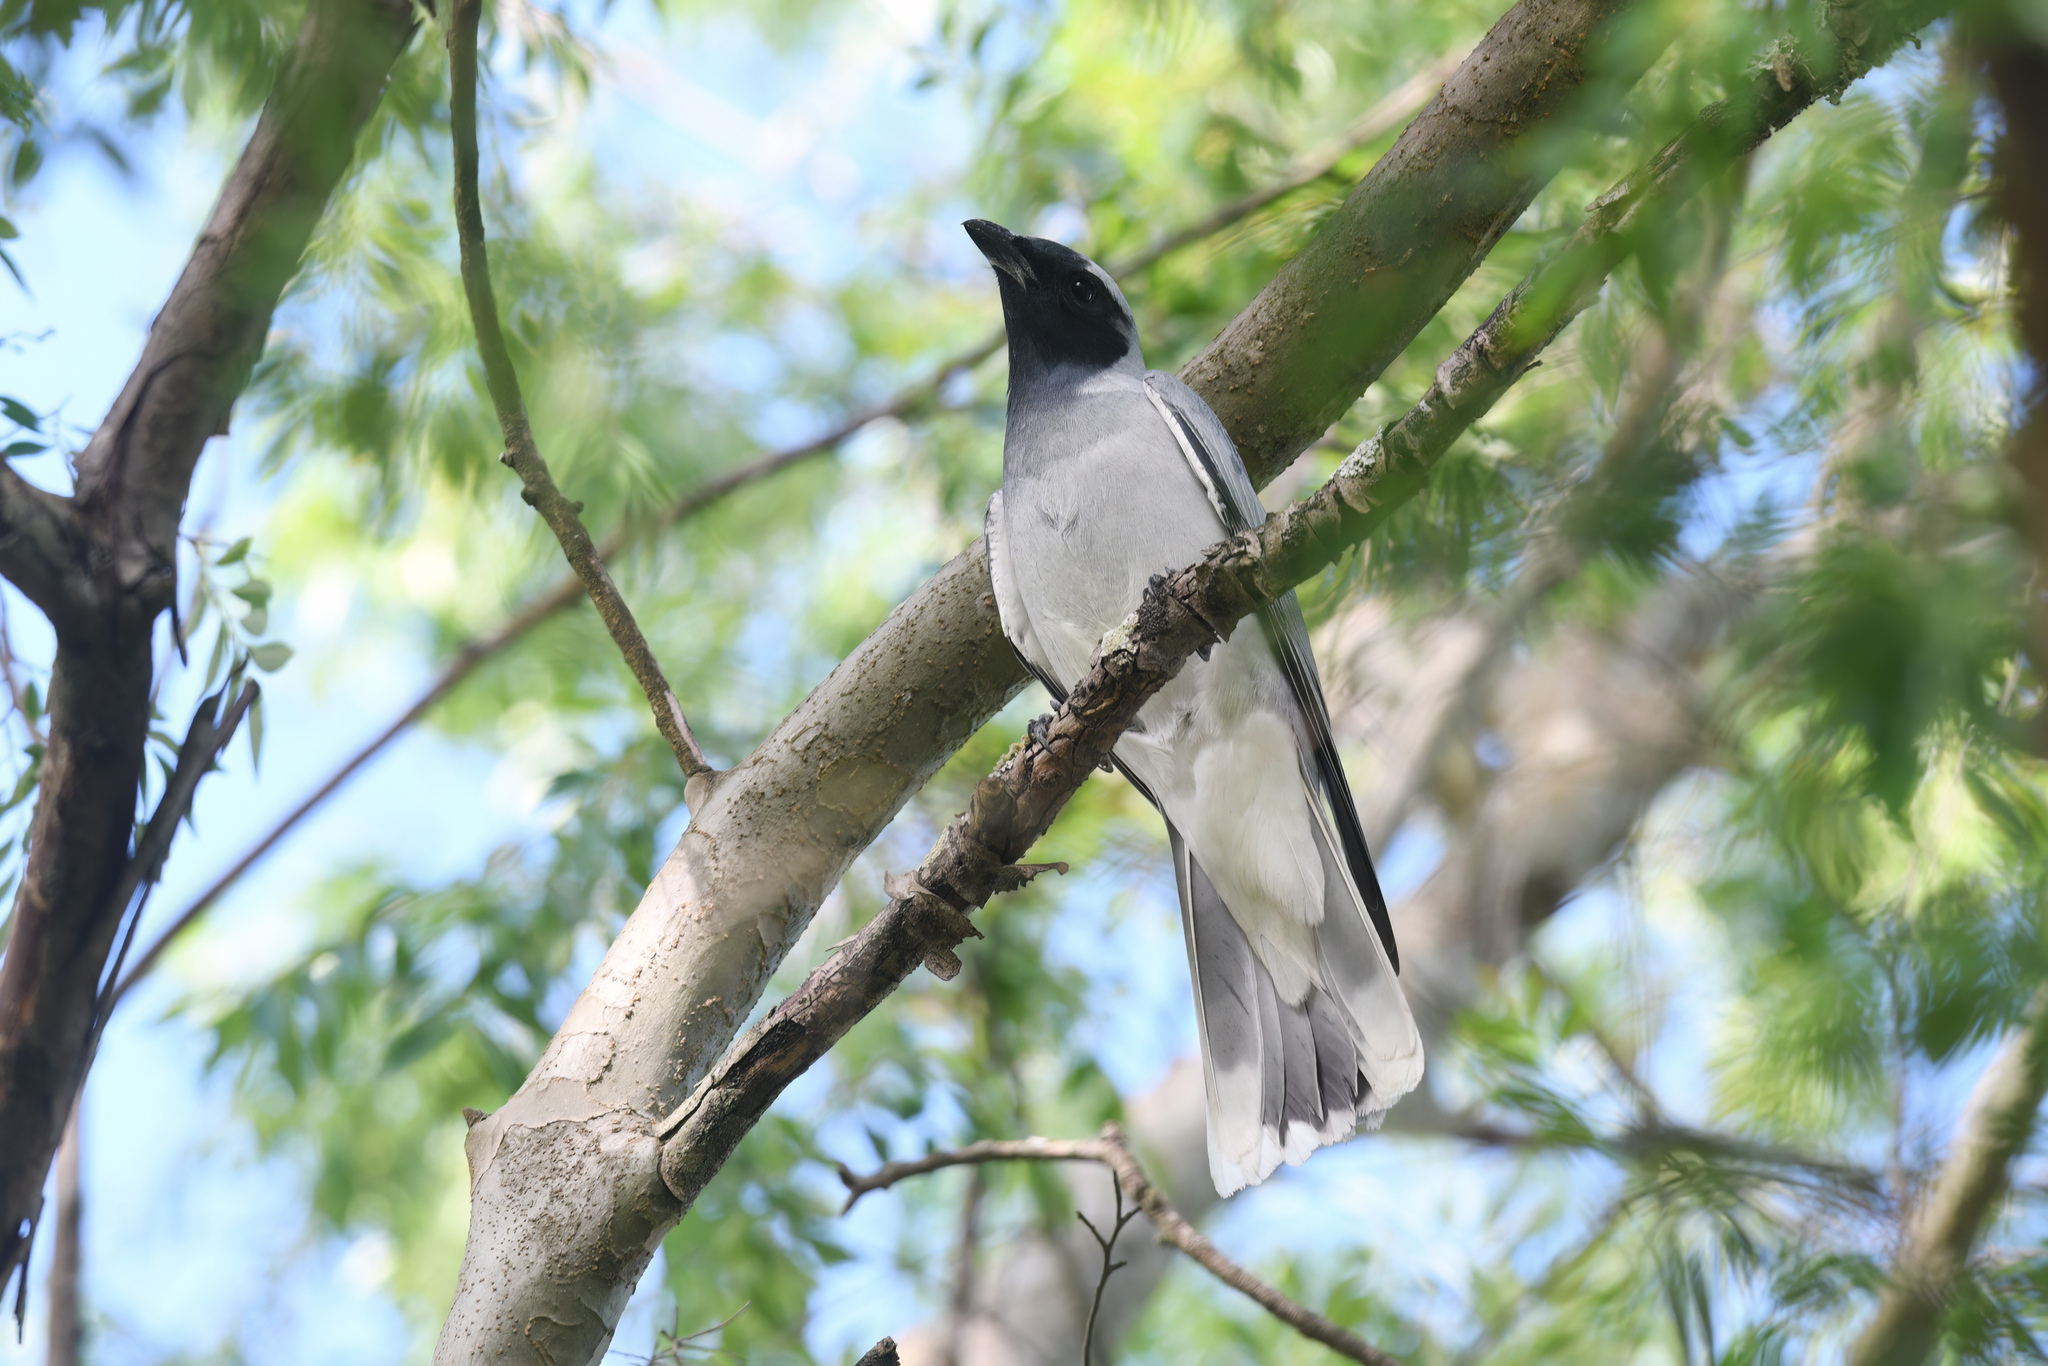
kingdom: Animalia
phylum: Chordata
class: Aves
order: Passeriformes
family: Campephagidae
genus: Coracina
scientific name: Coracina novaehollandiae
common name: Black-faced cuckooshrike
